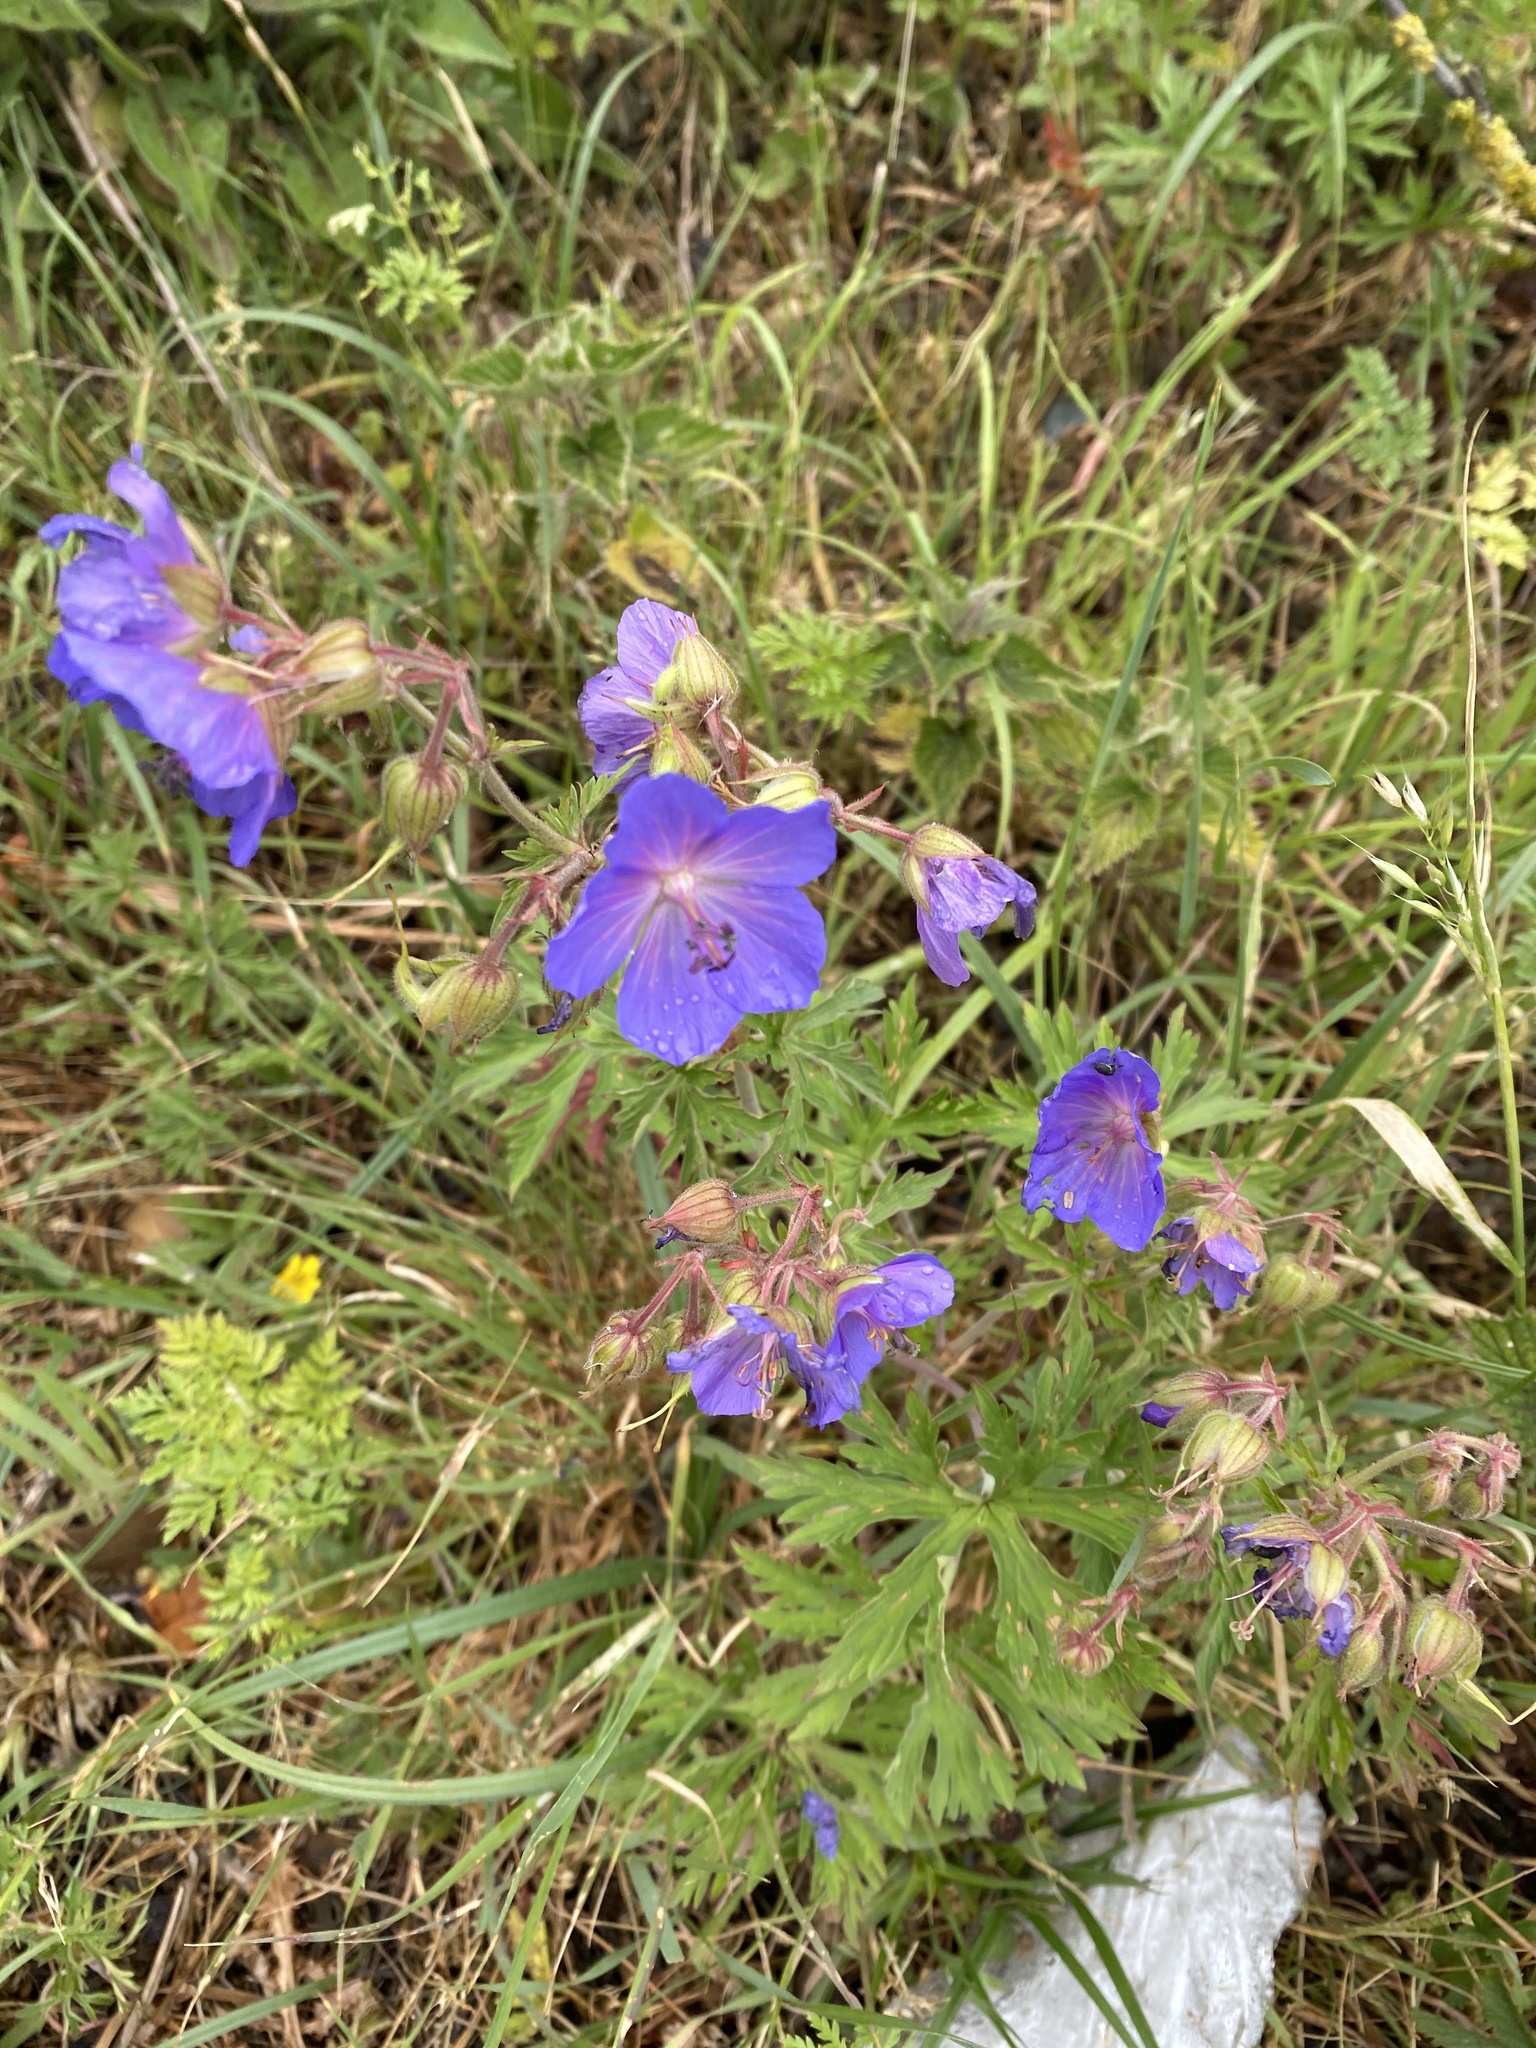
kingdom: Plantae
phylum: Tracheophyta
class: Magnoliopsida
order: Geraniales
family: Geraniaceae
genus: Geranium
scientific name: Geranium pratense
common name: Meadow crane's-bill
